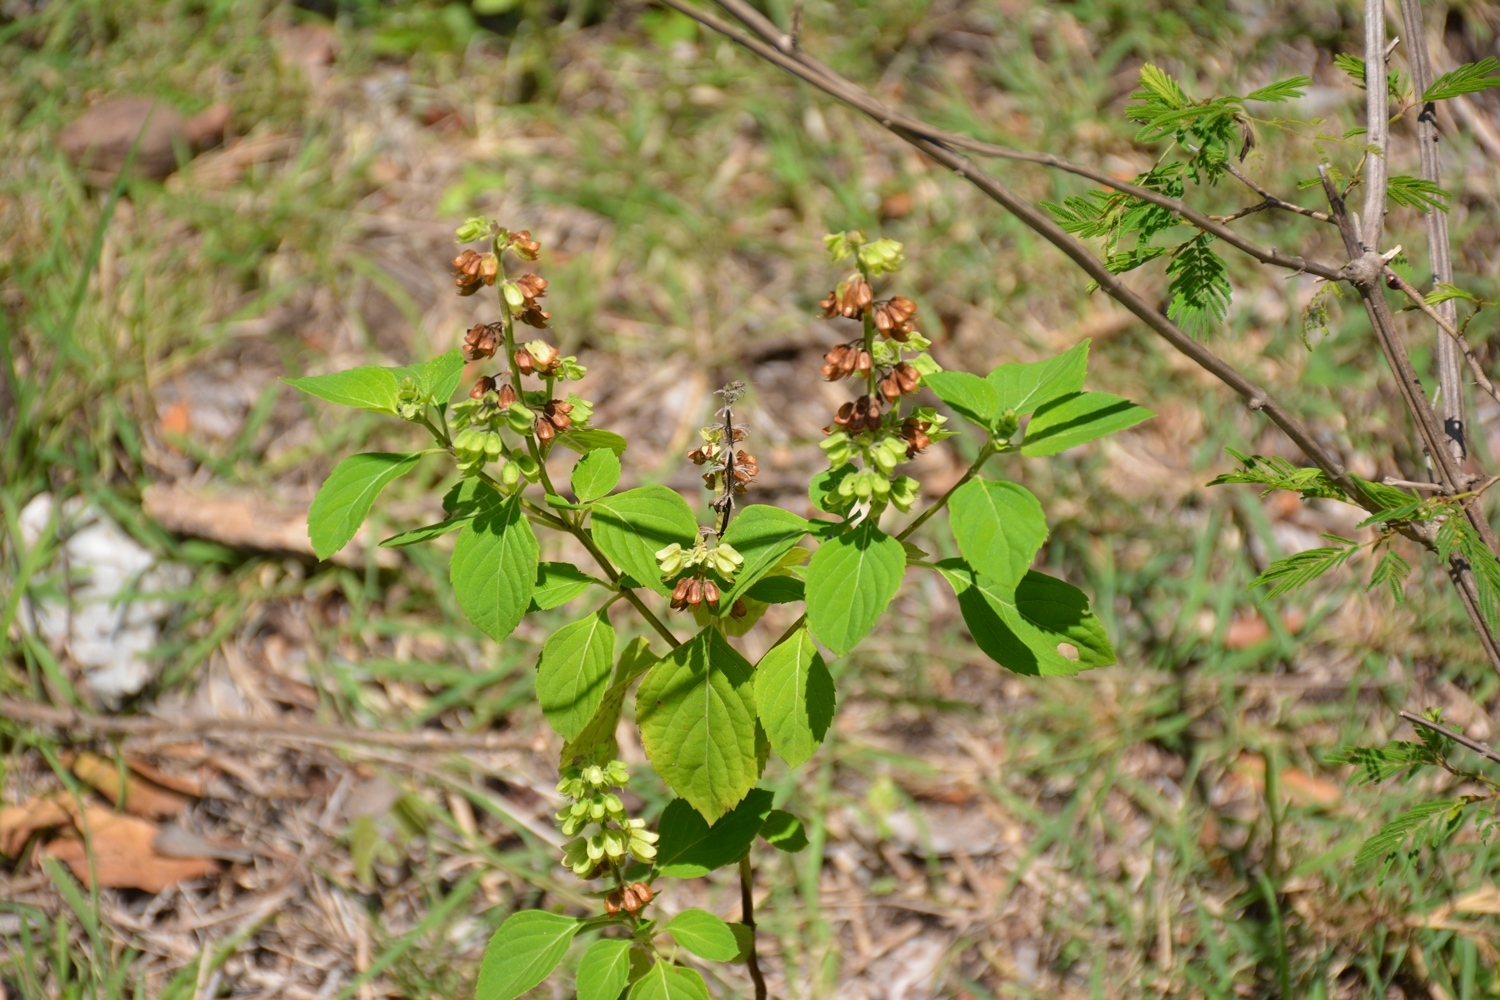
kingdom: Plantae
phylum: Tracheophyta
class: Magnoliopsida
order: Lamiales
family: Lamiaceae
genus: Ocimum
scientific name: Ocimum campechianum
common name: Mosquito basil
